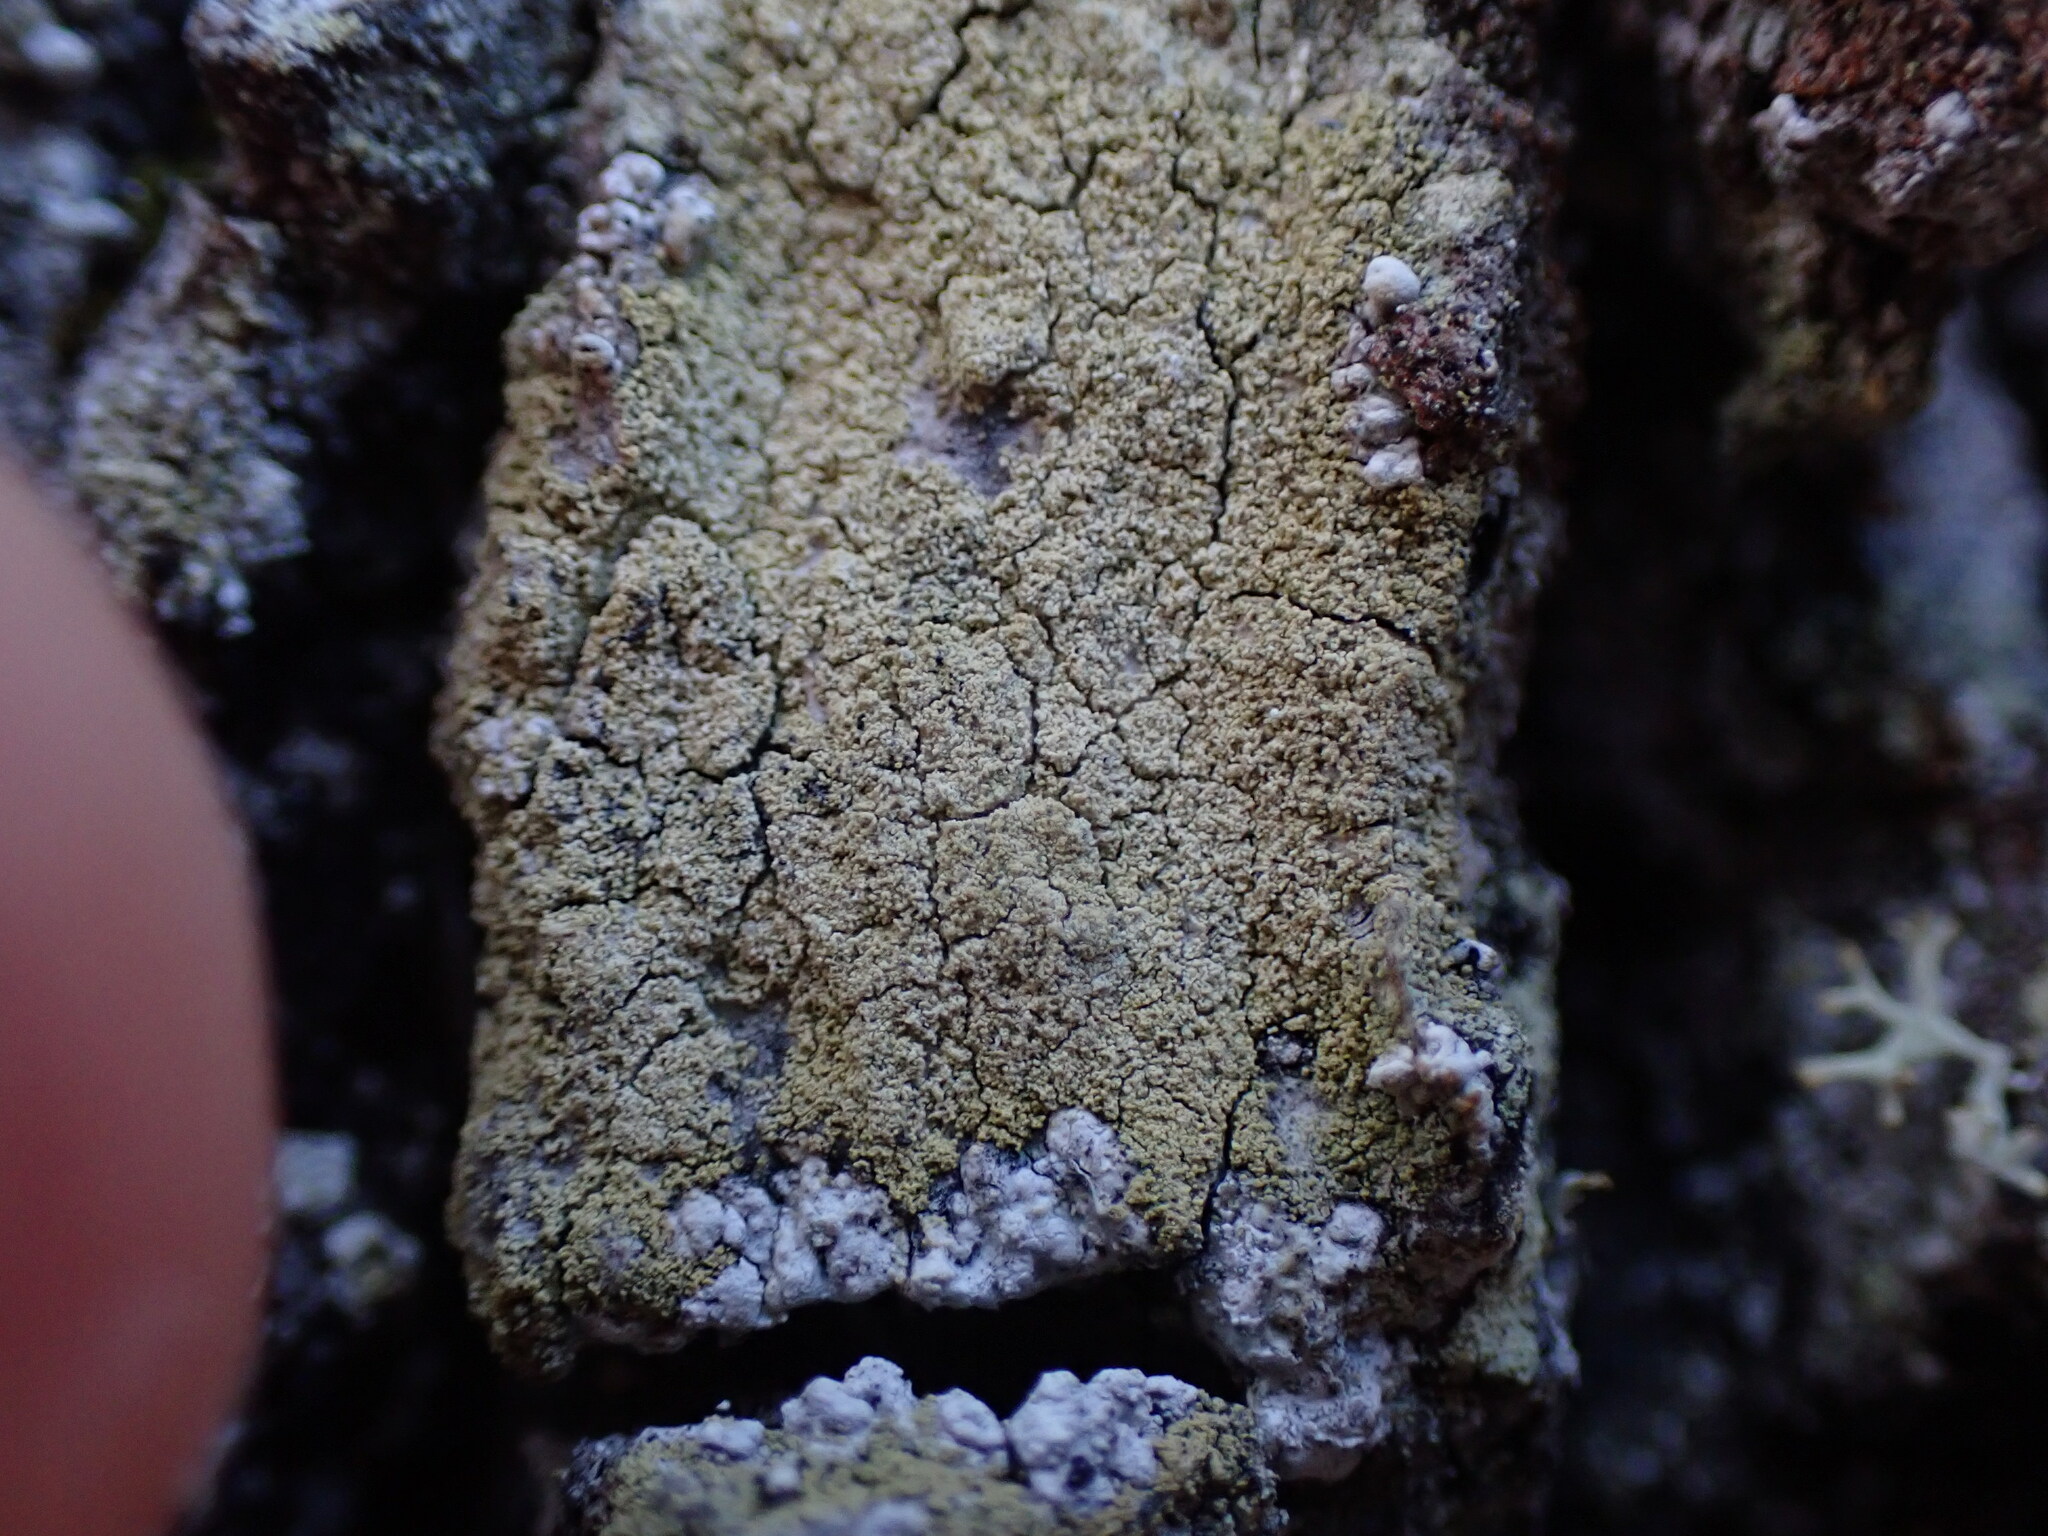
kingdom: Fungi
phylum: Ascomycota
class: Lecanoromycetes
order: Lecanorales
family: Lecanoraceae
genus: Pyrrhospora
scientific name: Pyrrhospora quernea
